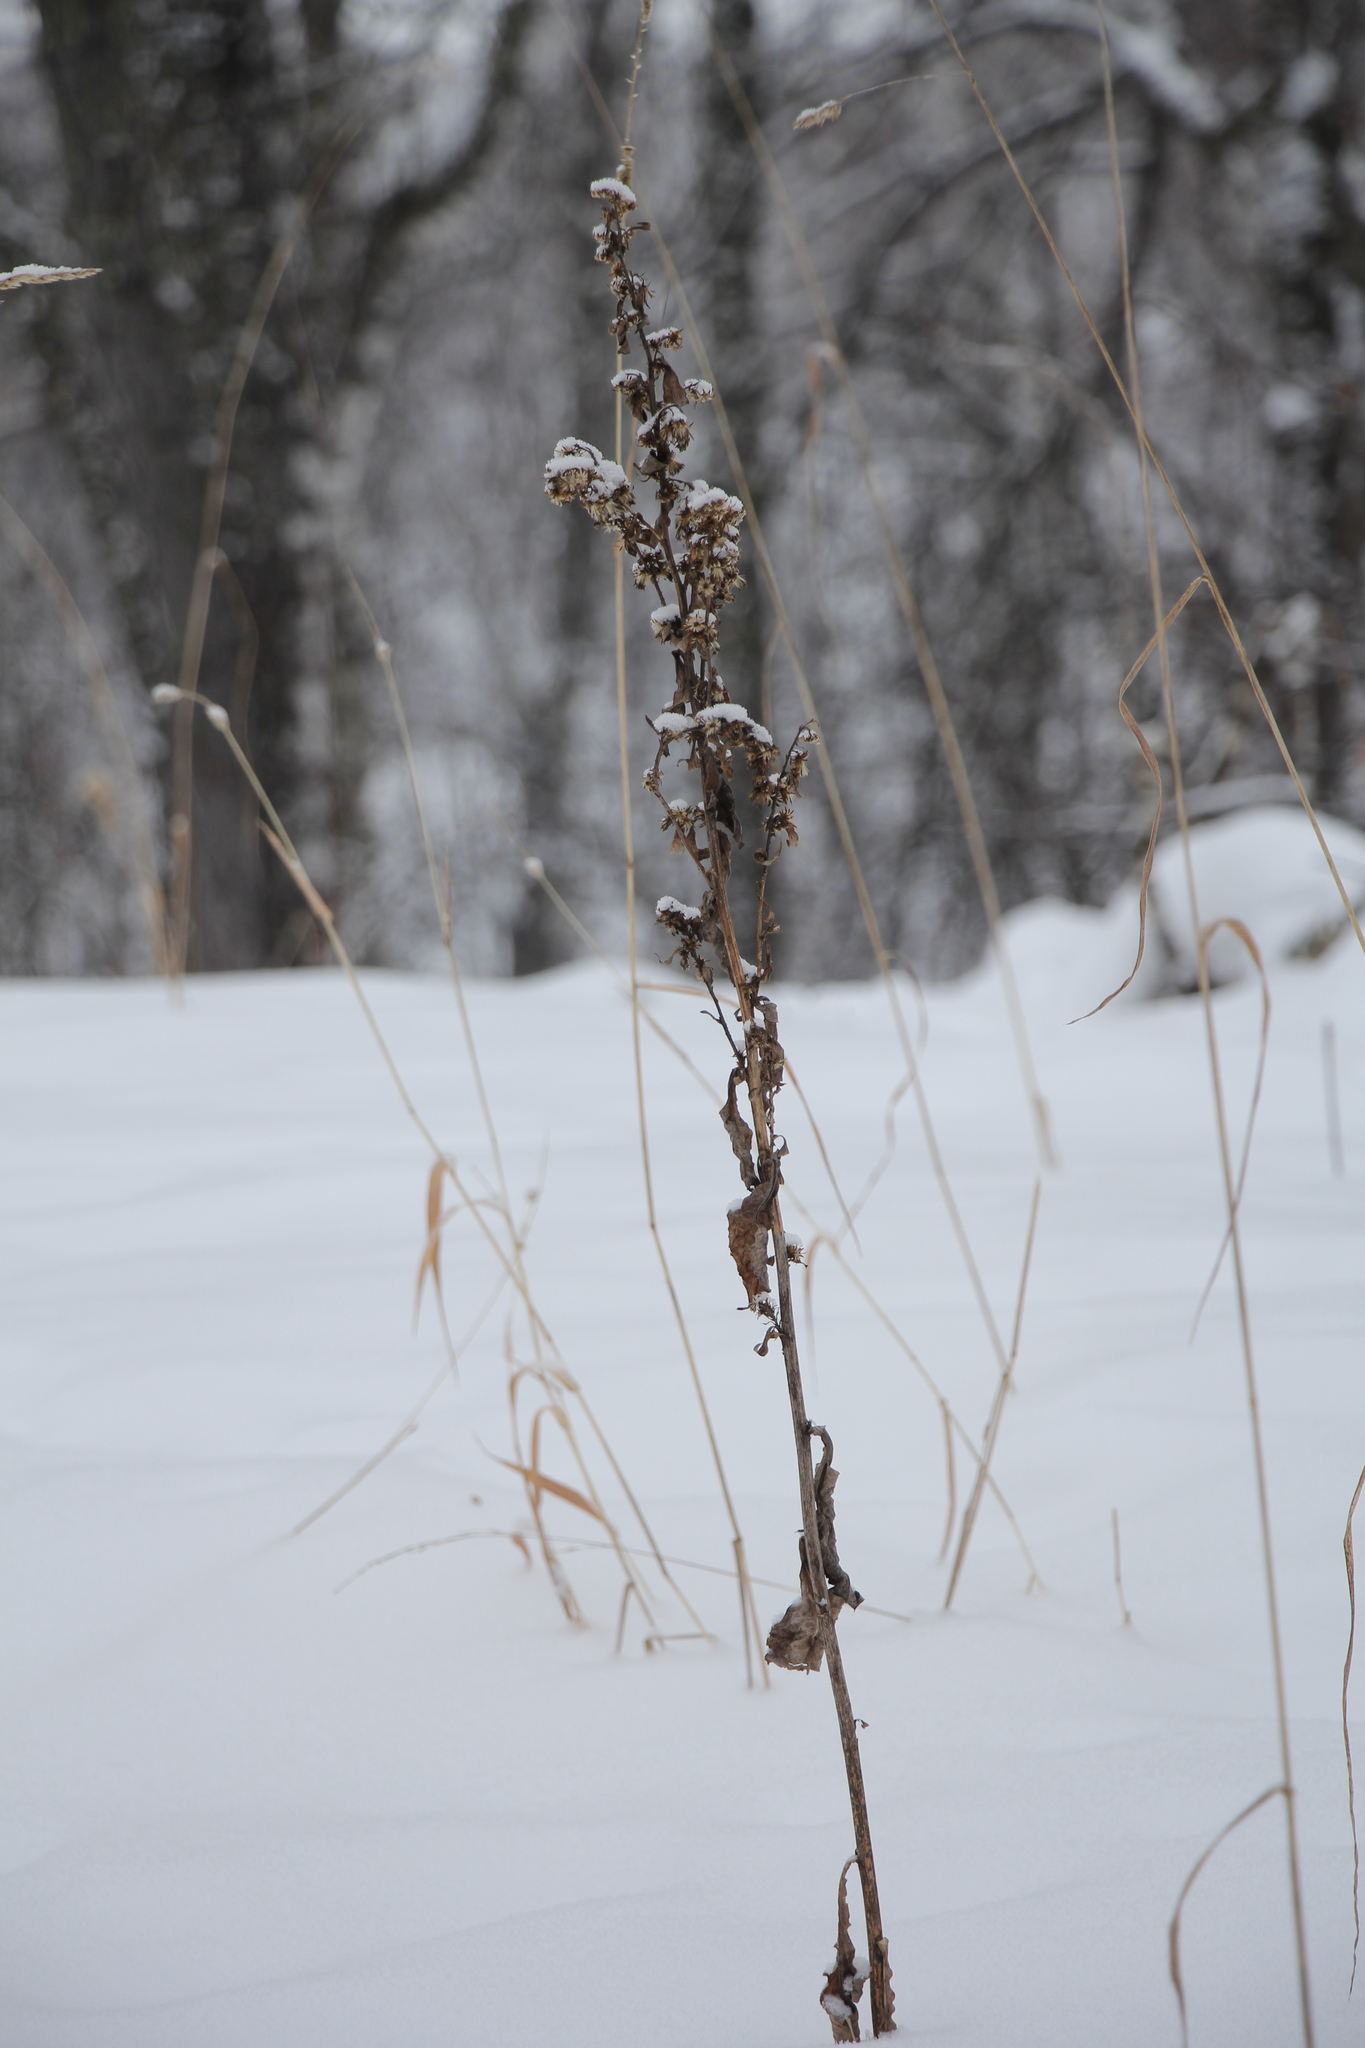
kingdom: Plantae
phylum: Tracheophyta
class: Magnoliopsida
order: Asterales
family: Asteraceae
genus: Solidago
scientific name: Solidago virgaurea
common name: Goldenrod
